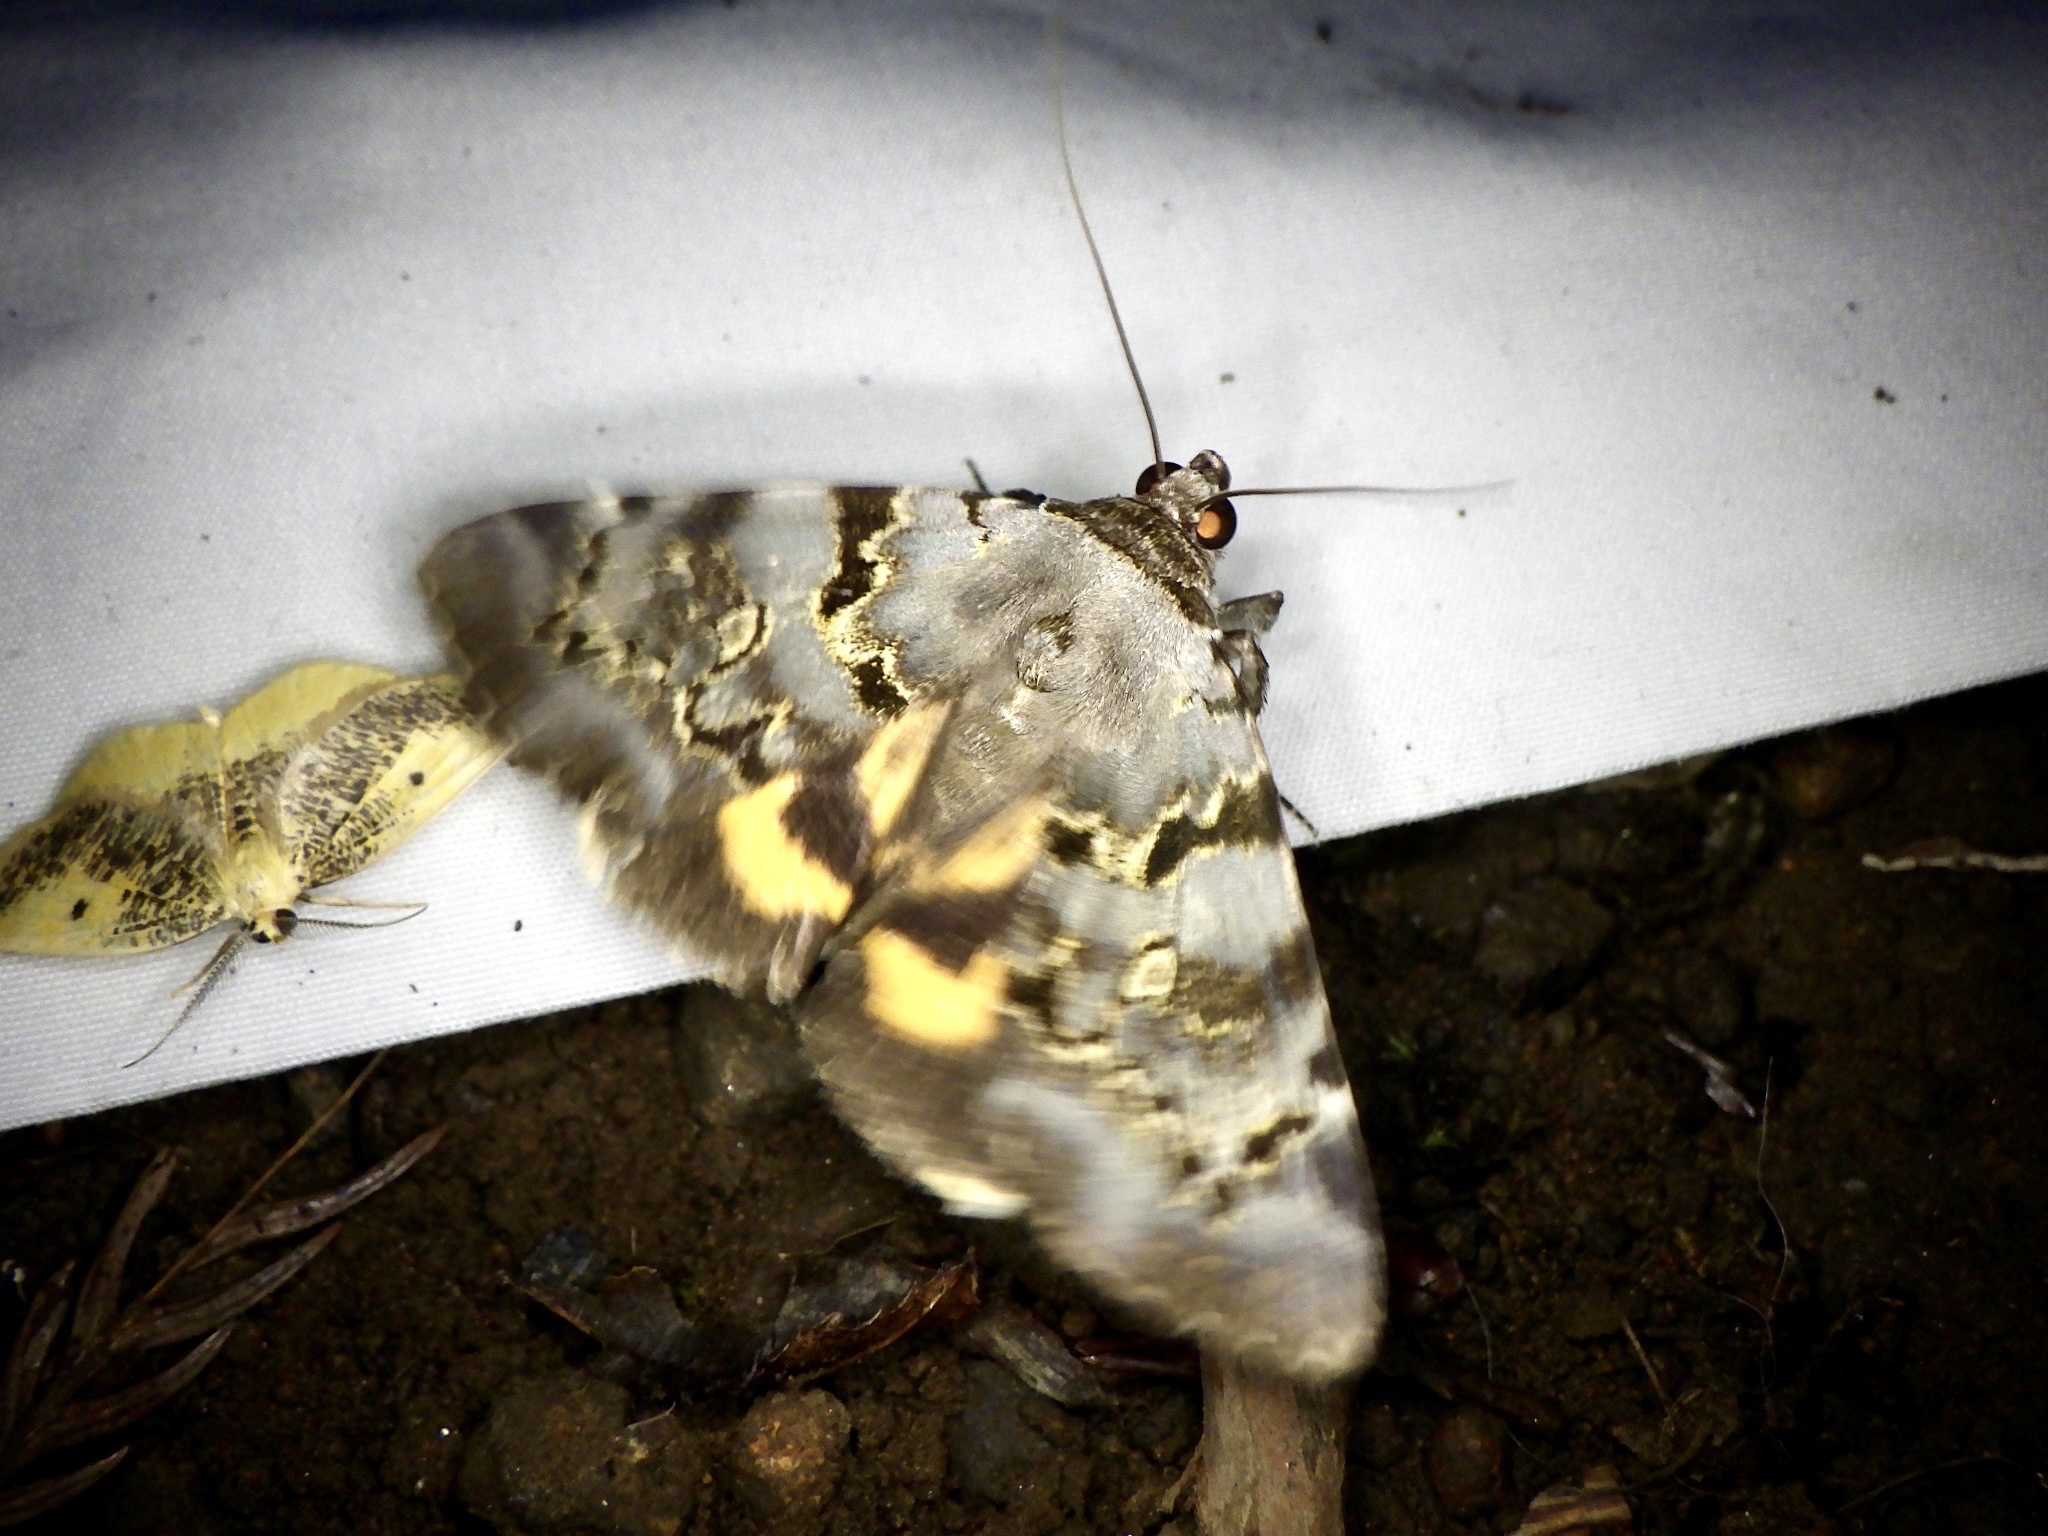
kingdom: Animalia
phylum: Arthropoda
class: Insecta
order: Lepidoptera
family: Erebidae
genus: Catocala
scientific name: Catocala columbina
